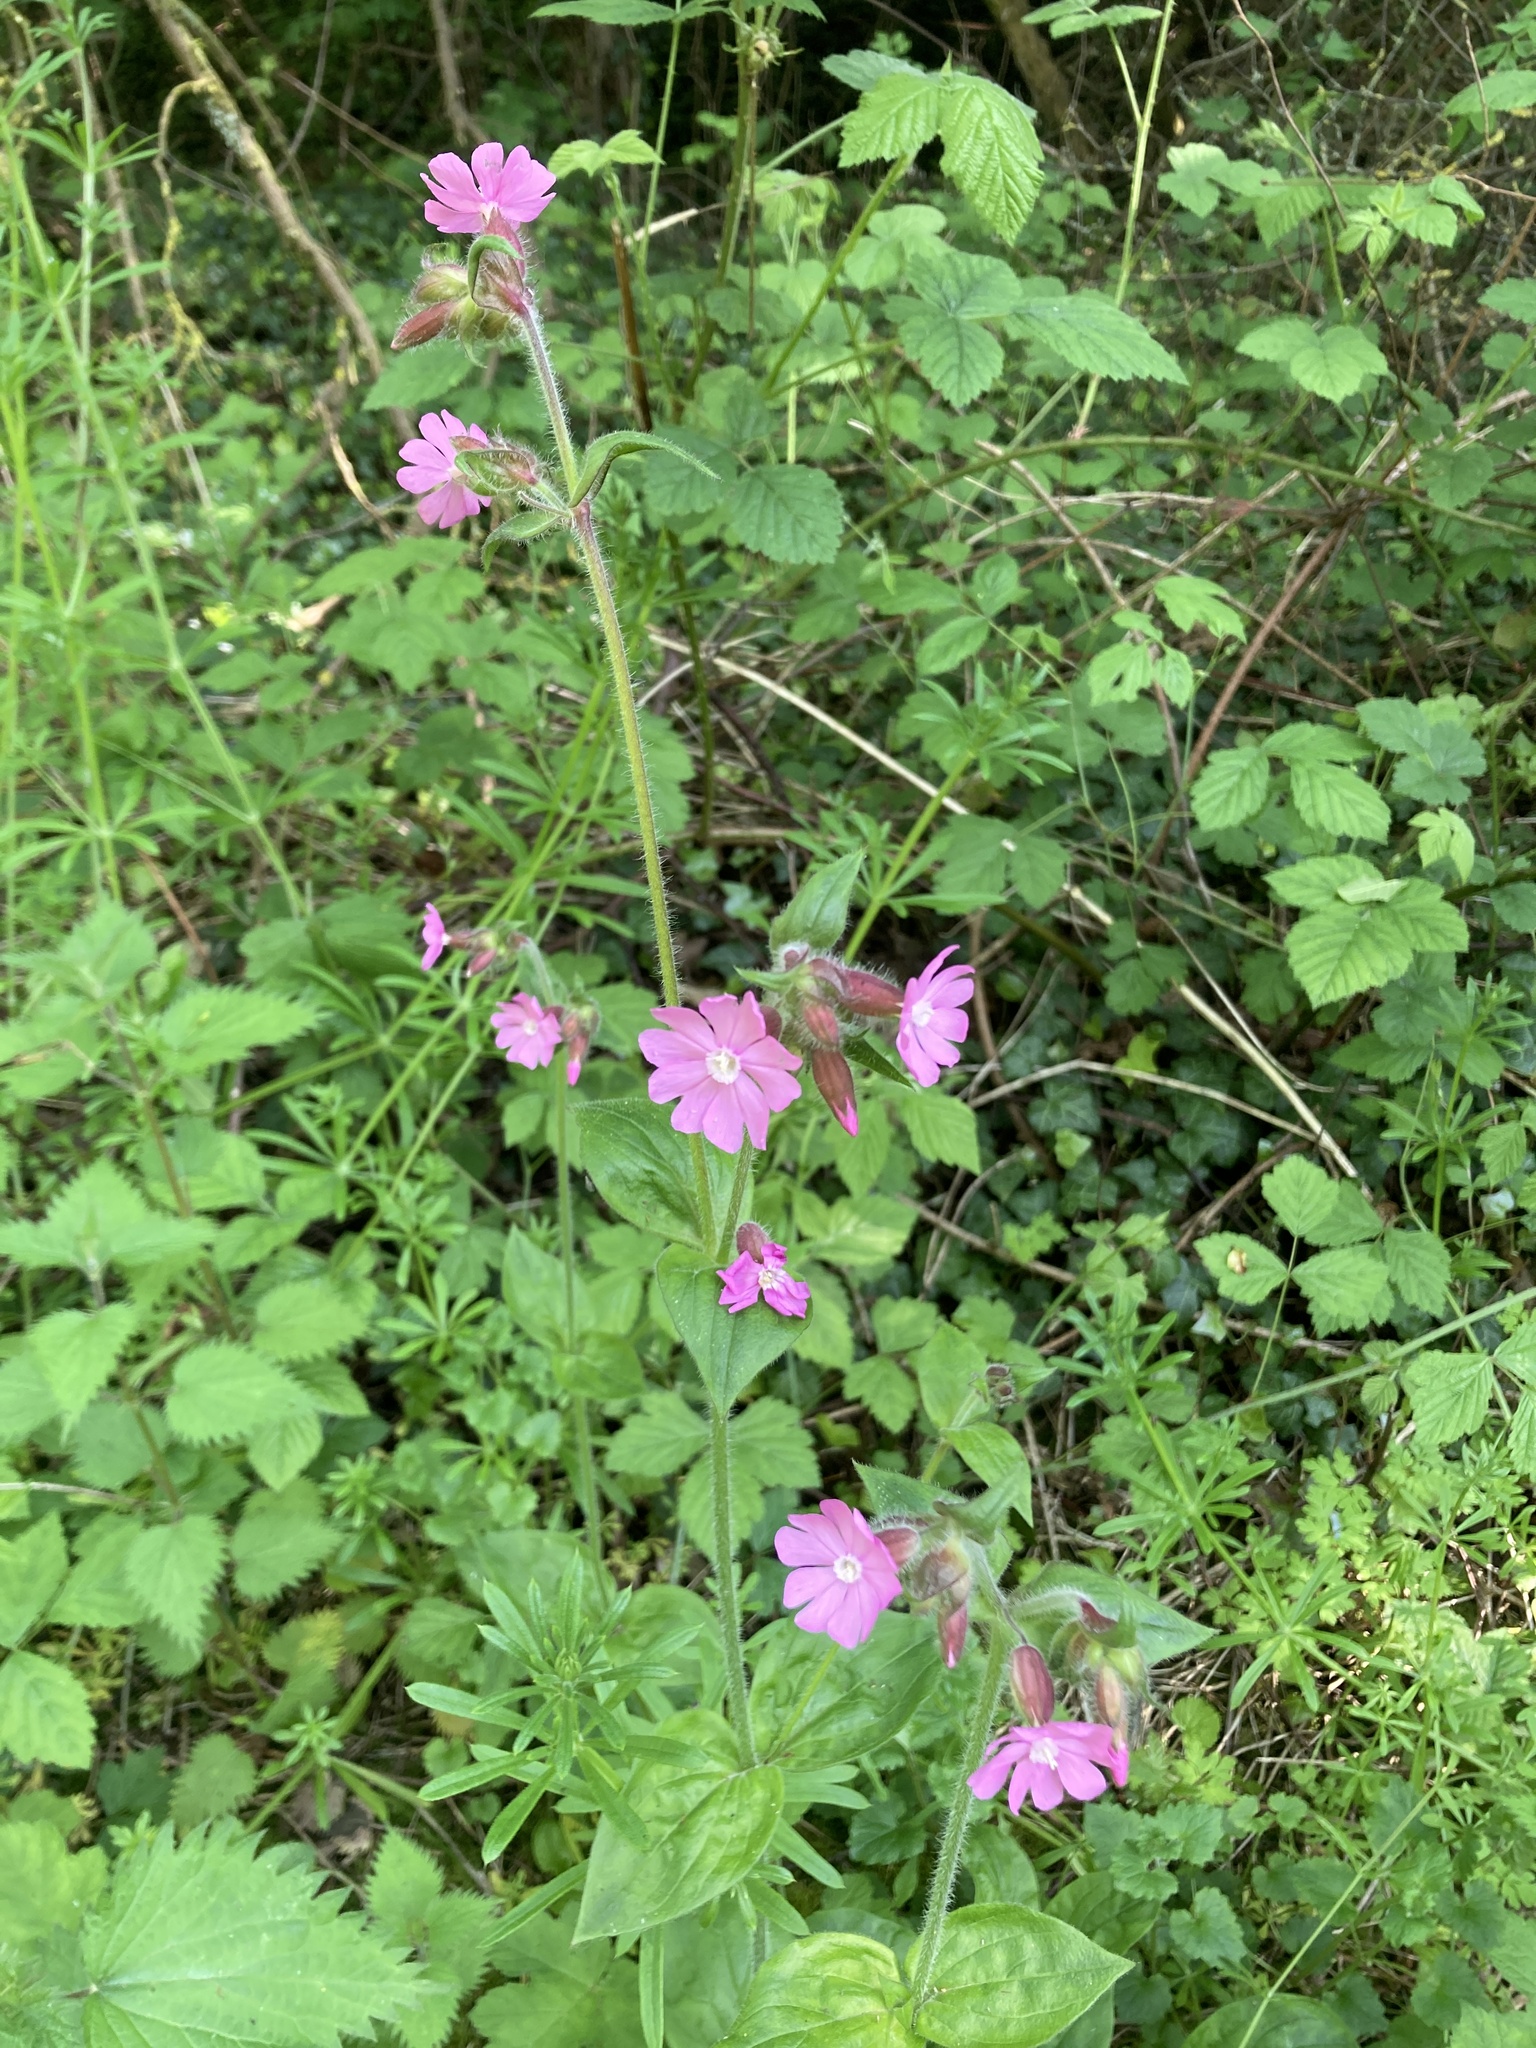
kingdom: Plantae
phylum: Tracheophyta
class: Magnoliopsida
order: Caryophyllales
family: Caryophyllaceae
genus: Silene
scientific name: Silene dioica
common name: Red campion
